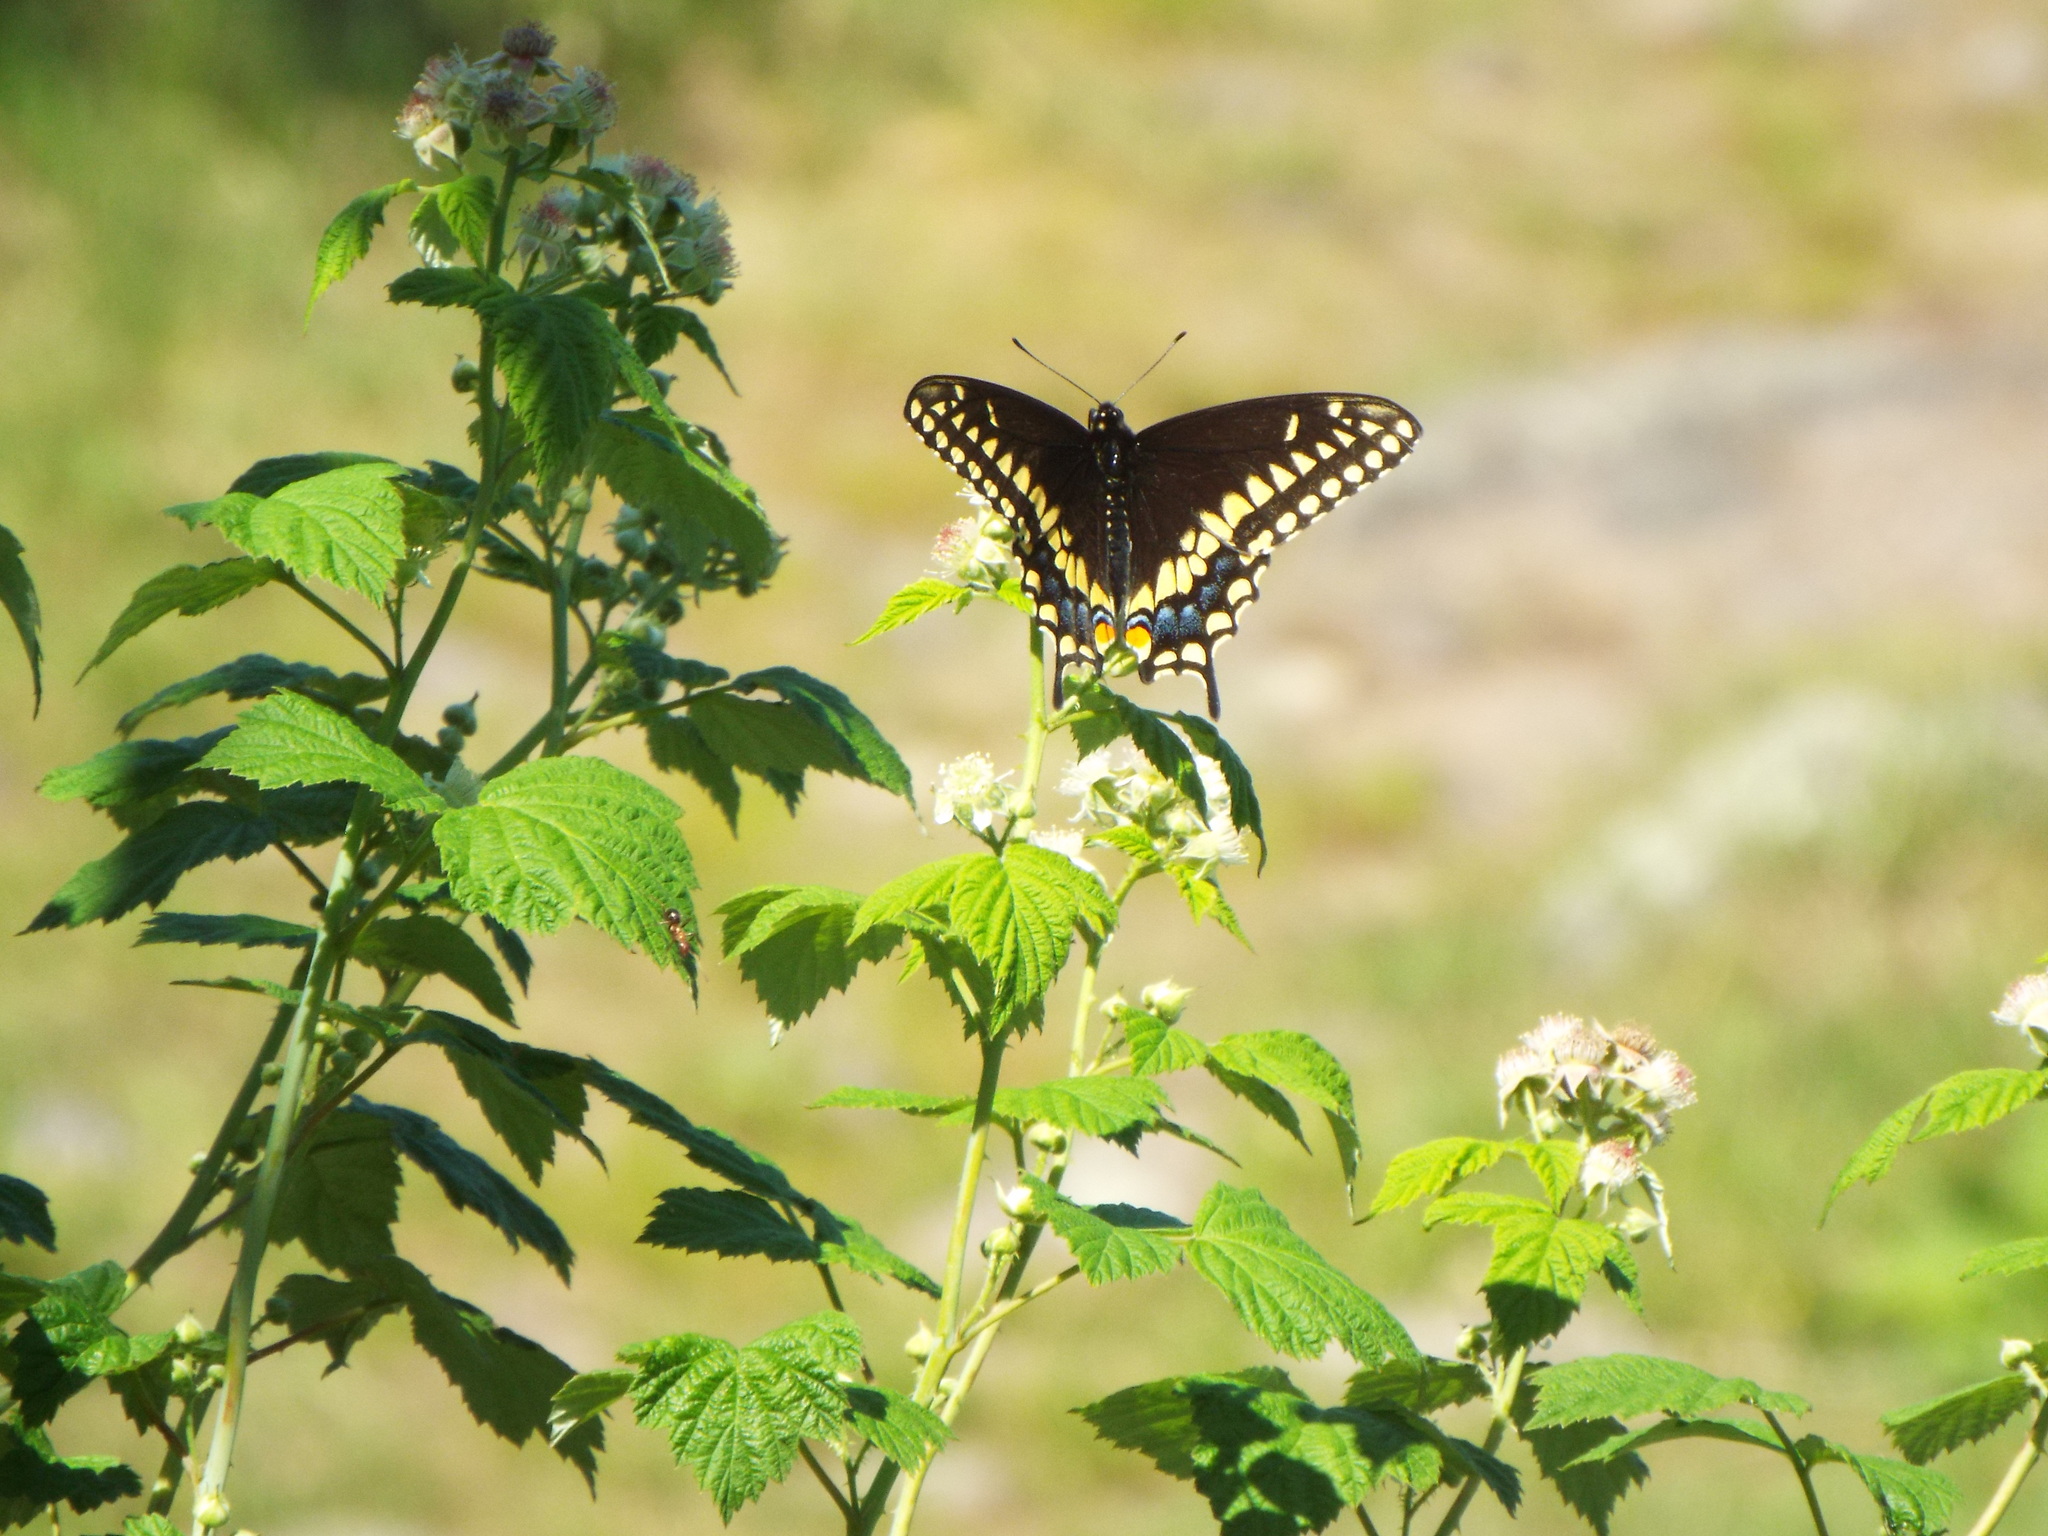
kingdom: Animalia
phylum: Arthropoda
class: Insecta
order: Lepidoptera
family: Papilionidae
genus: Papilio
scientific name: Papilio polyxenes
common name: Black swallowtail
